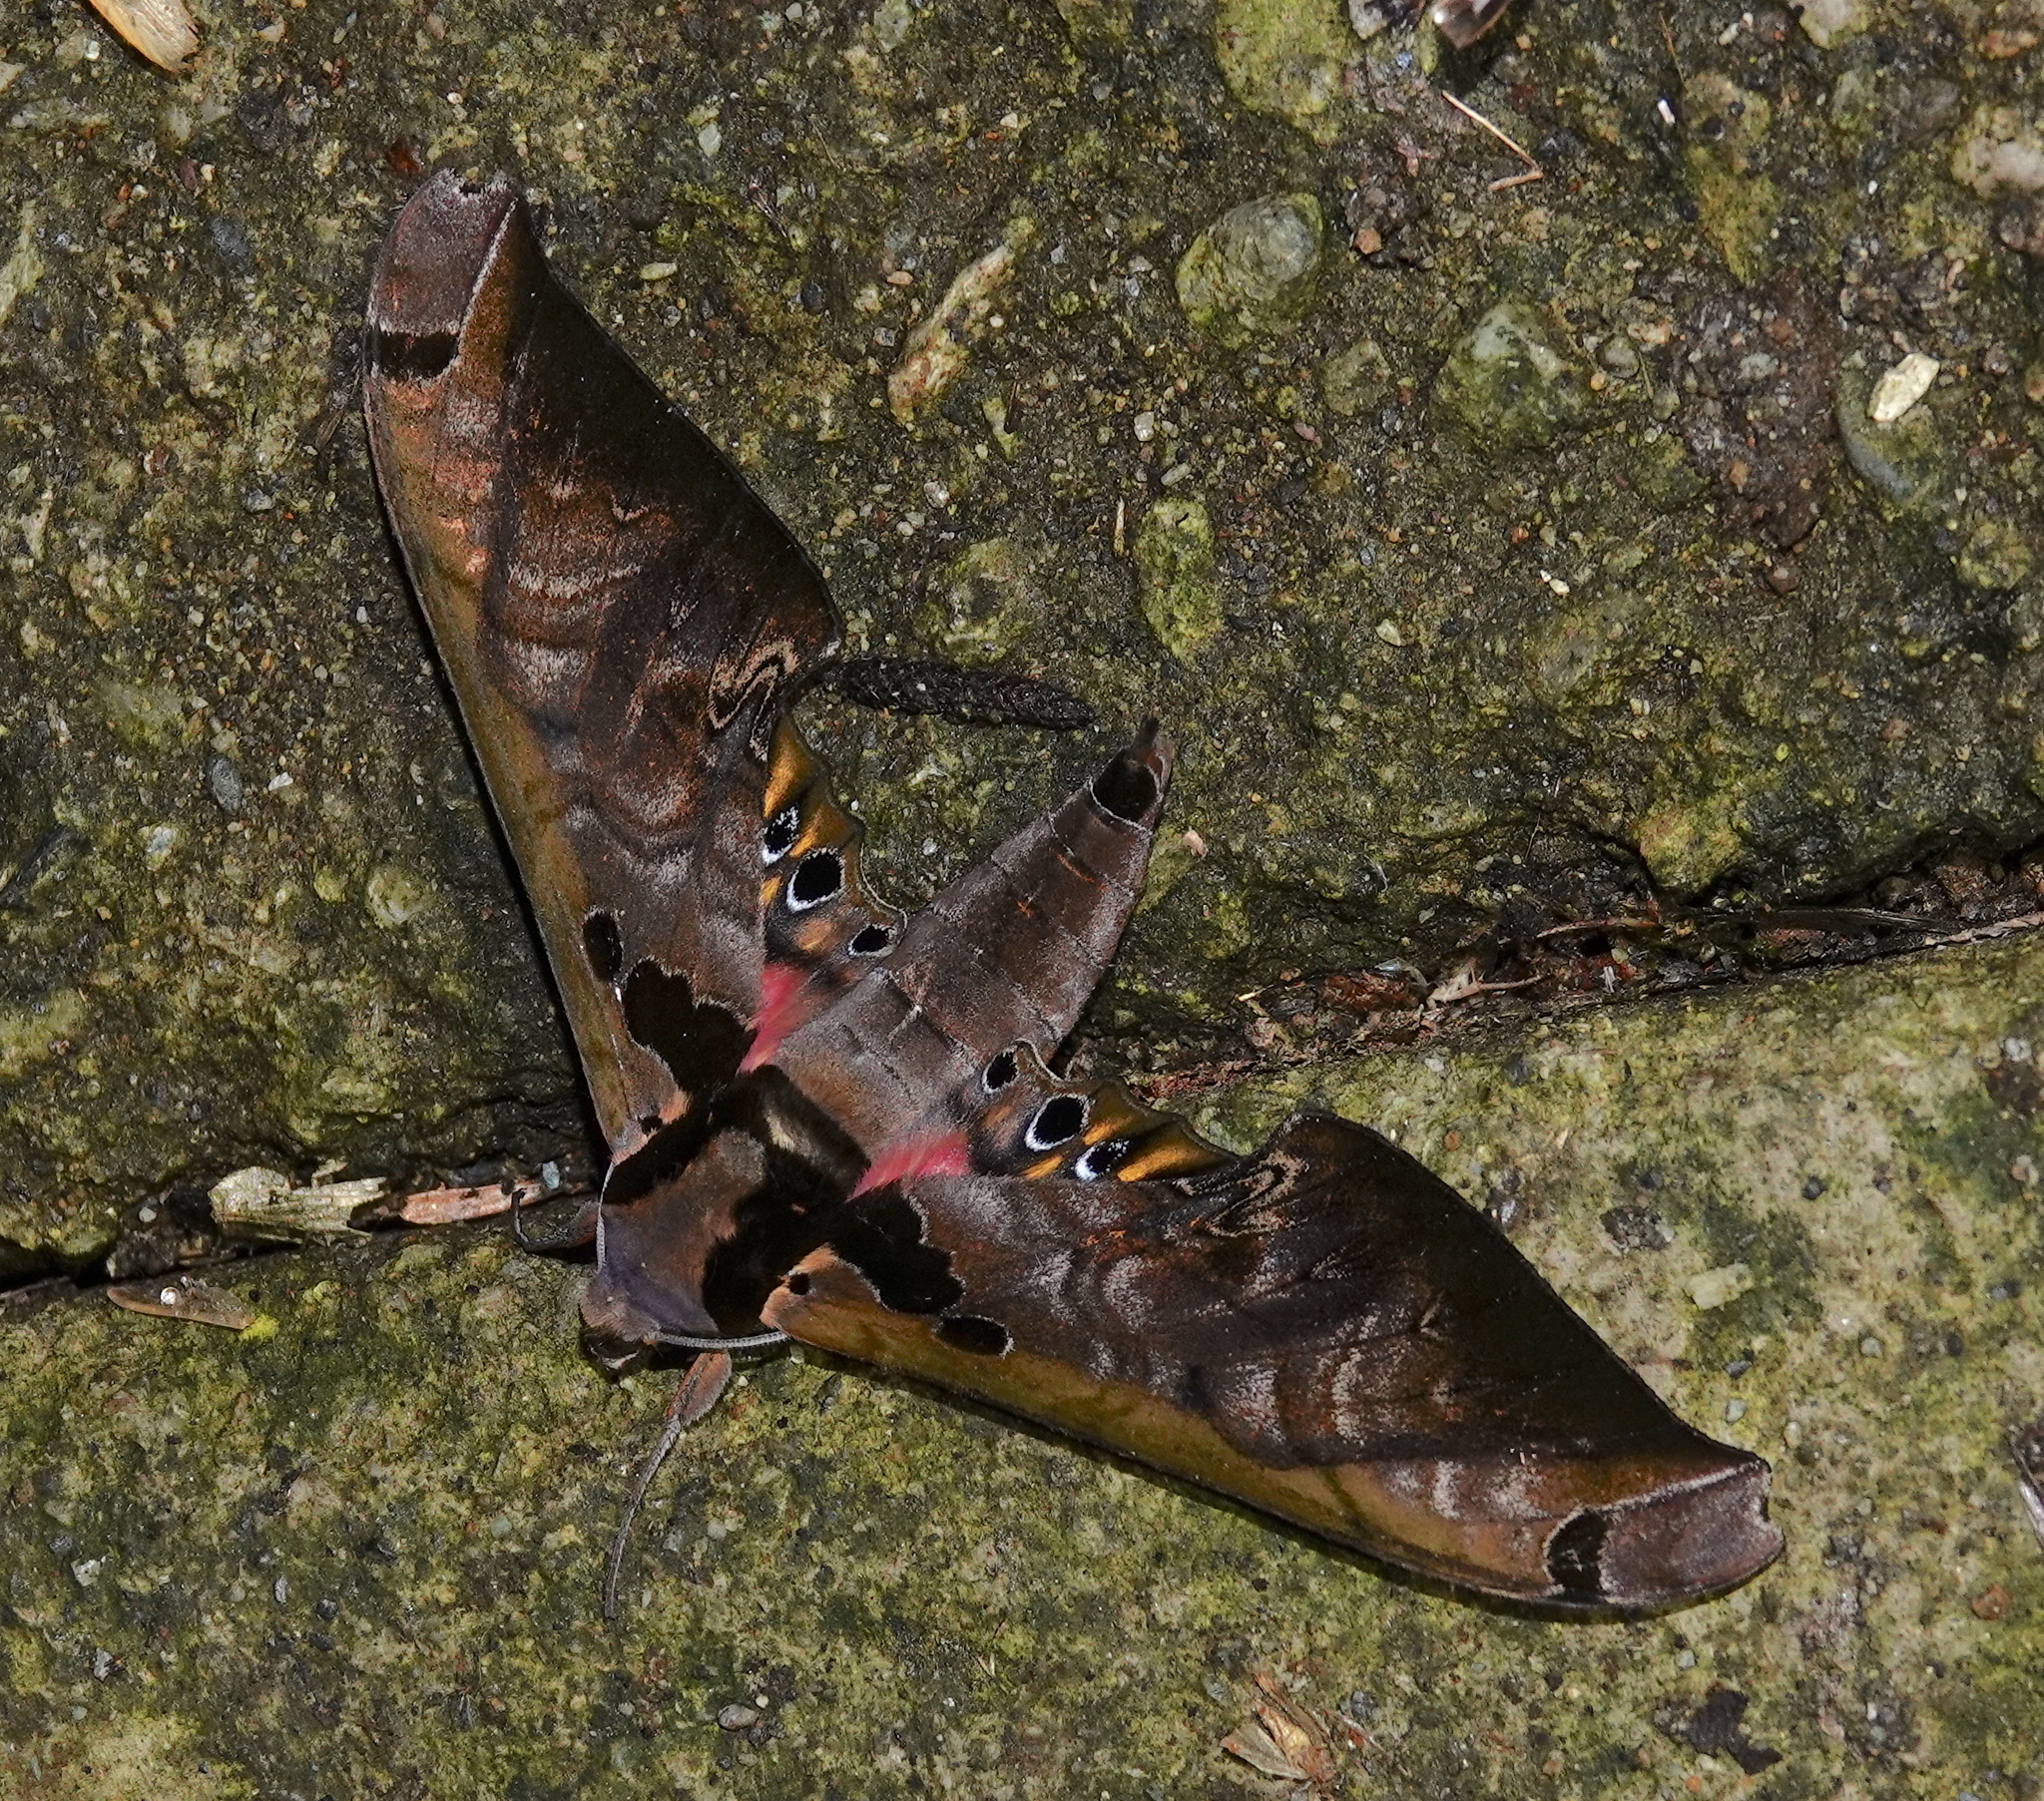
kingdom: Animalia
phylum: Arthropoda
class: Insecta
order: Lepidoptera
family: Sphingidae
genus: Adhemarius
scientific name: Adhemarius sexoculata
